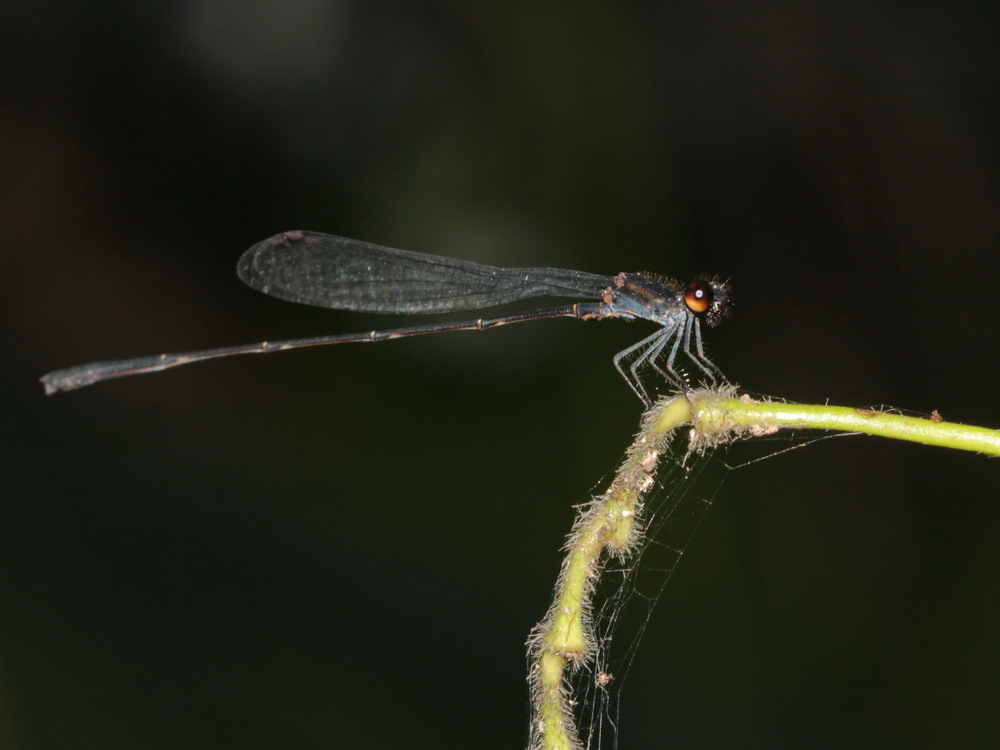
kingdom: Animalia
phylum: Arthropoda
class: Insecta
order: Odonata
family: Platycnemididae
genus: Prodasineura
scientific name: Prodasineura autumnalis
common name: Black threadtail
